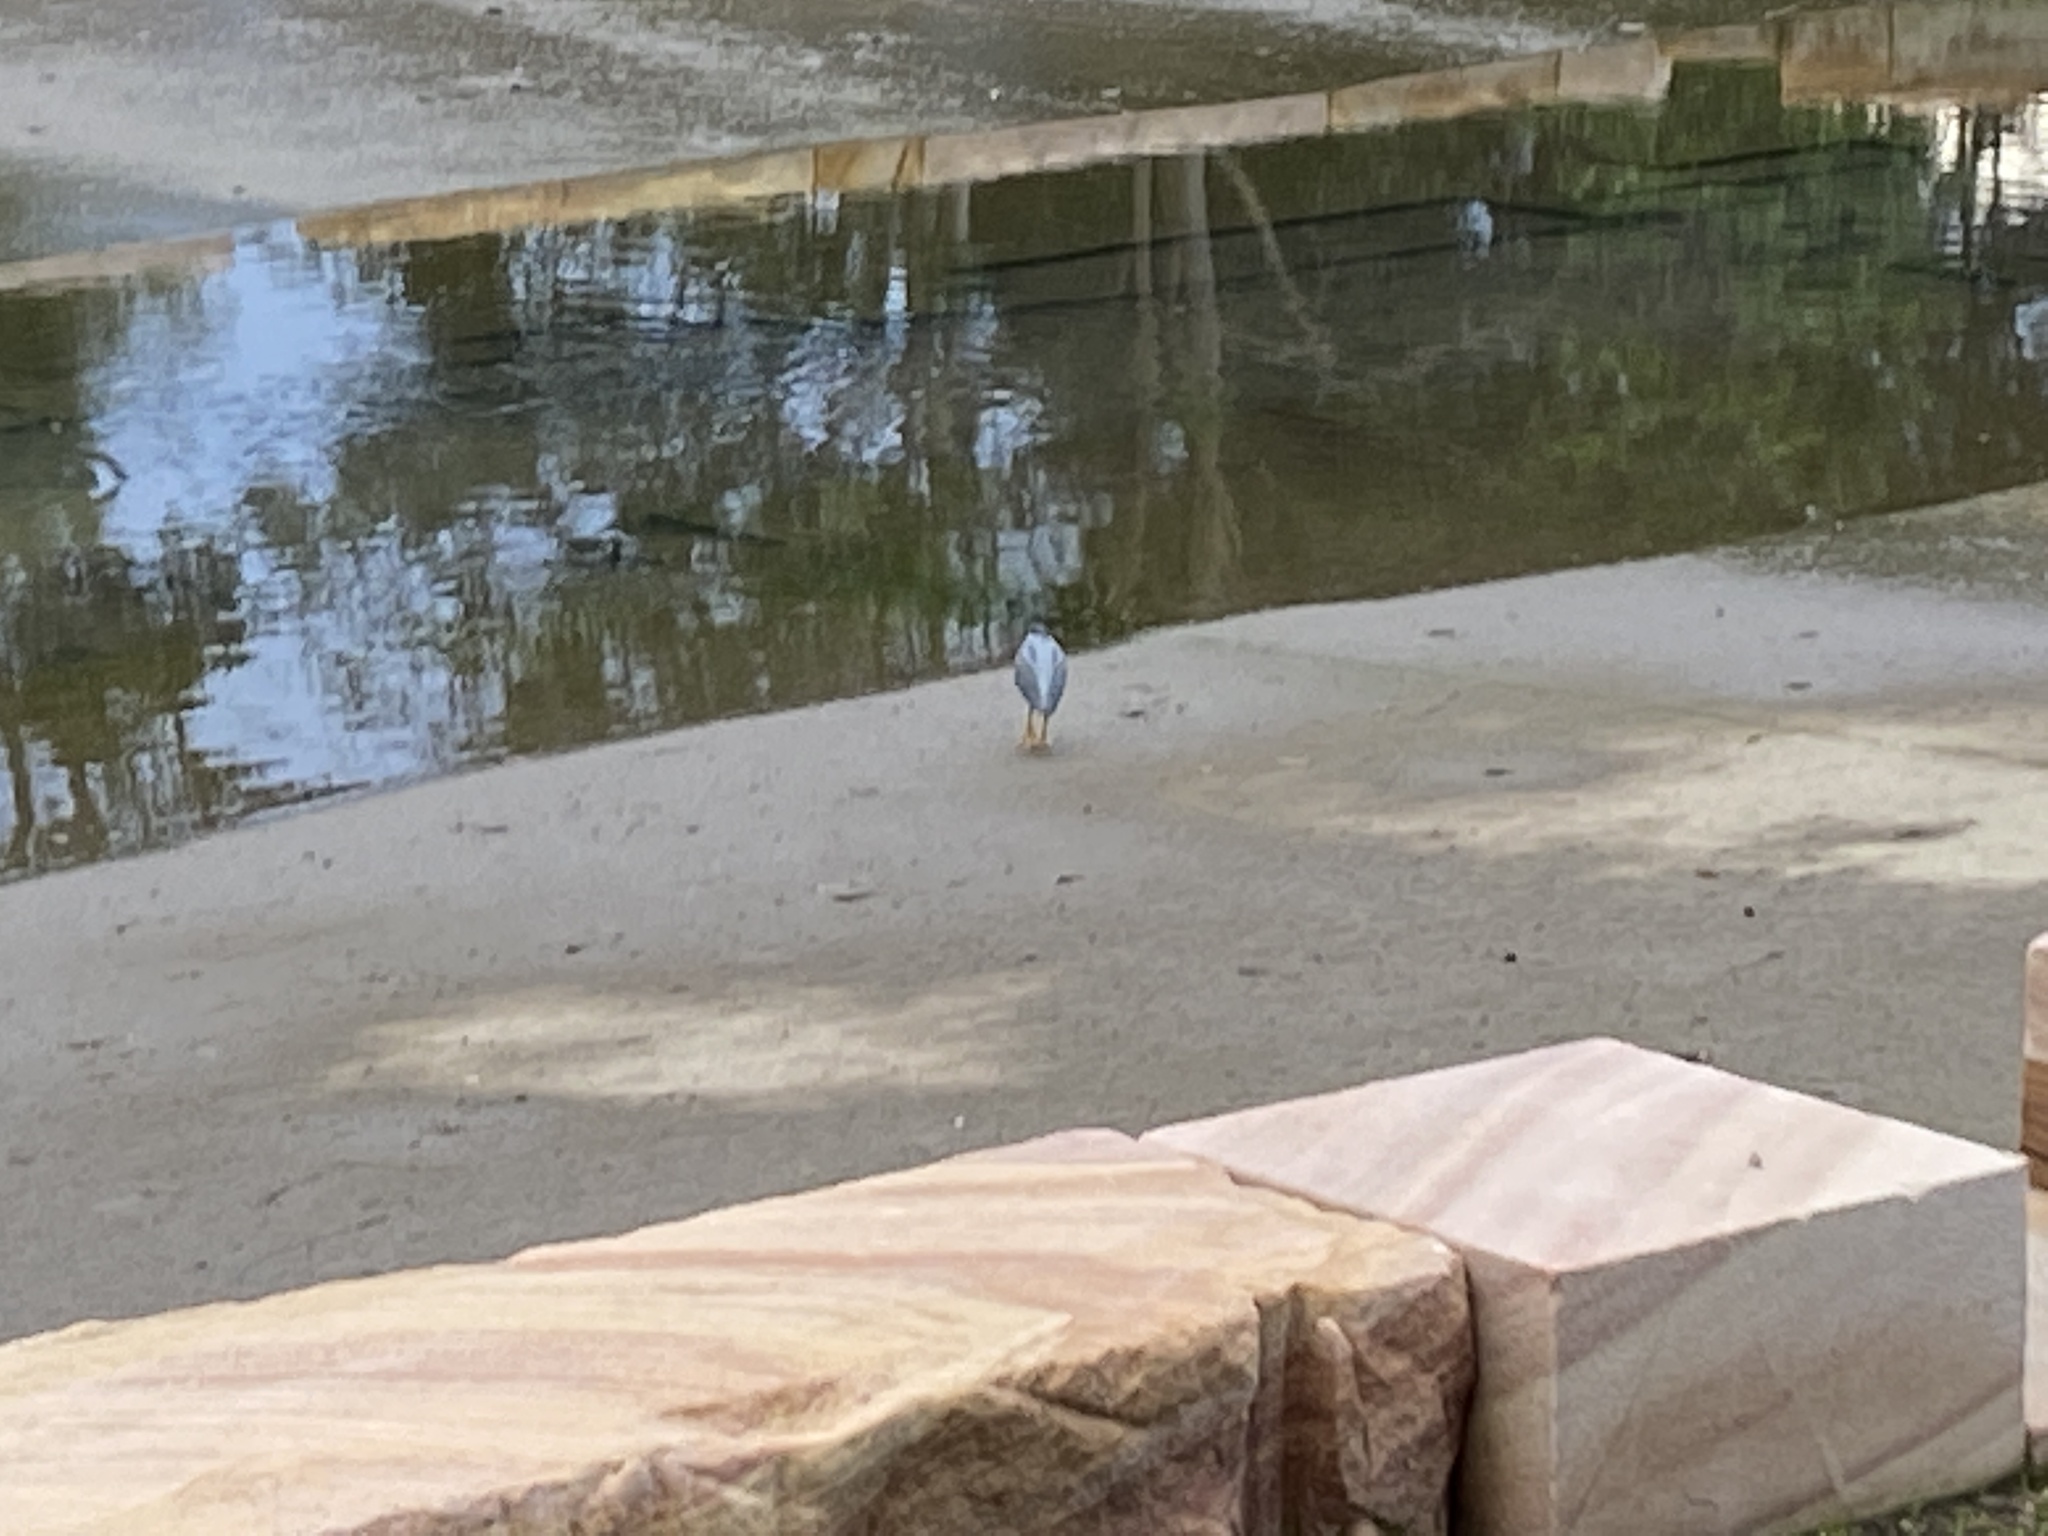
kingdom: Animalia
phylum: Chordata
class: Aves
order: Pelecaniformes
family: Ardeidae
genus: Butorides
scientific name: Butorides striata
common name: Striated heron
